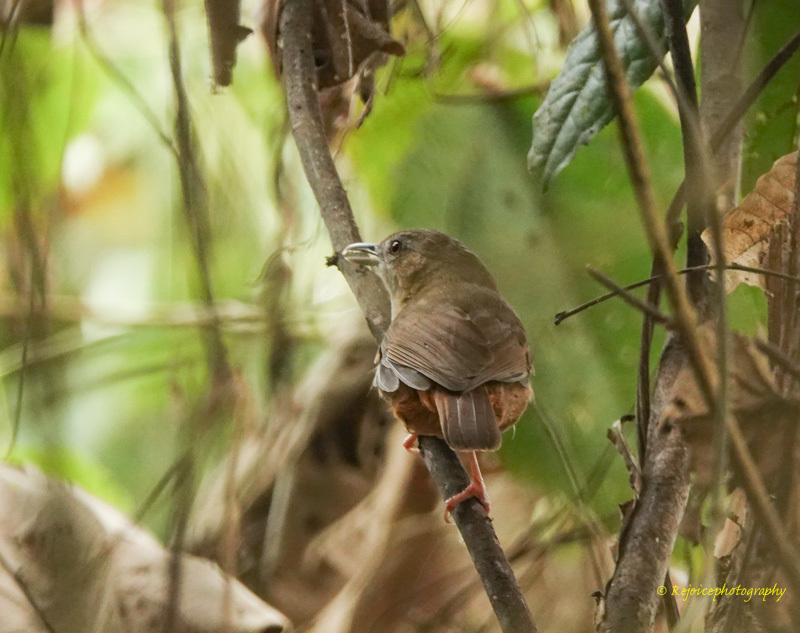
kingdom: Animalia
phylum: Chordata
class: Aves
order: Passeriformes
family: Pellorneidae
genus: Malacocincla
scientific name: Malacocincla abbotti
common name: Abbott's babbler
